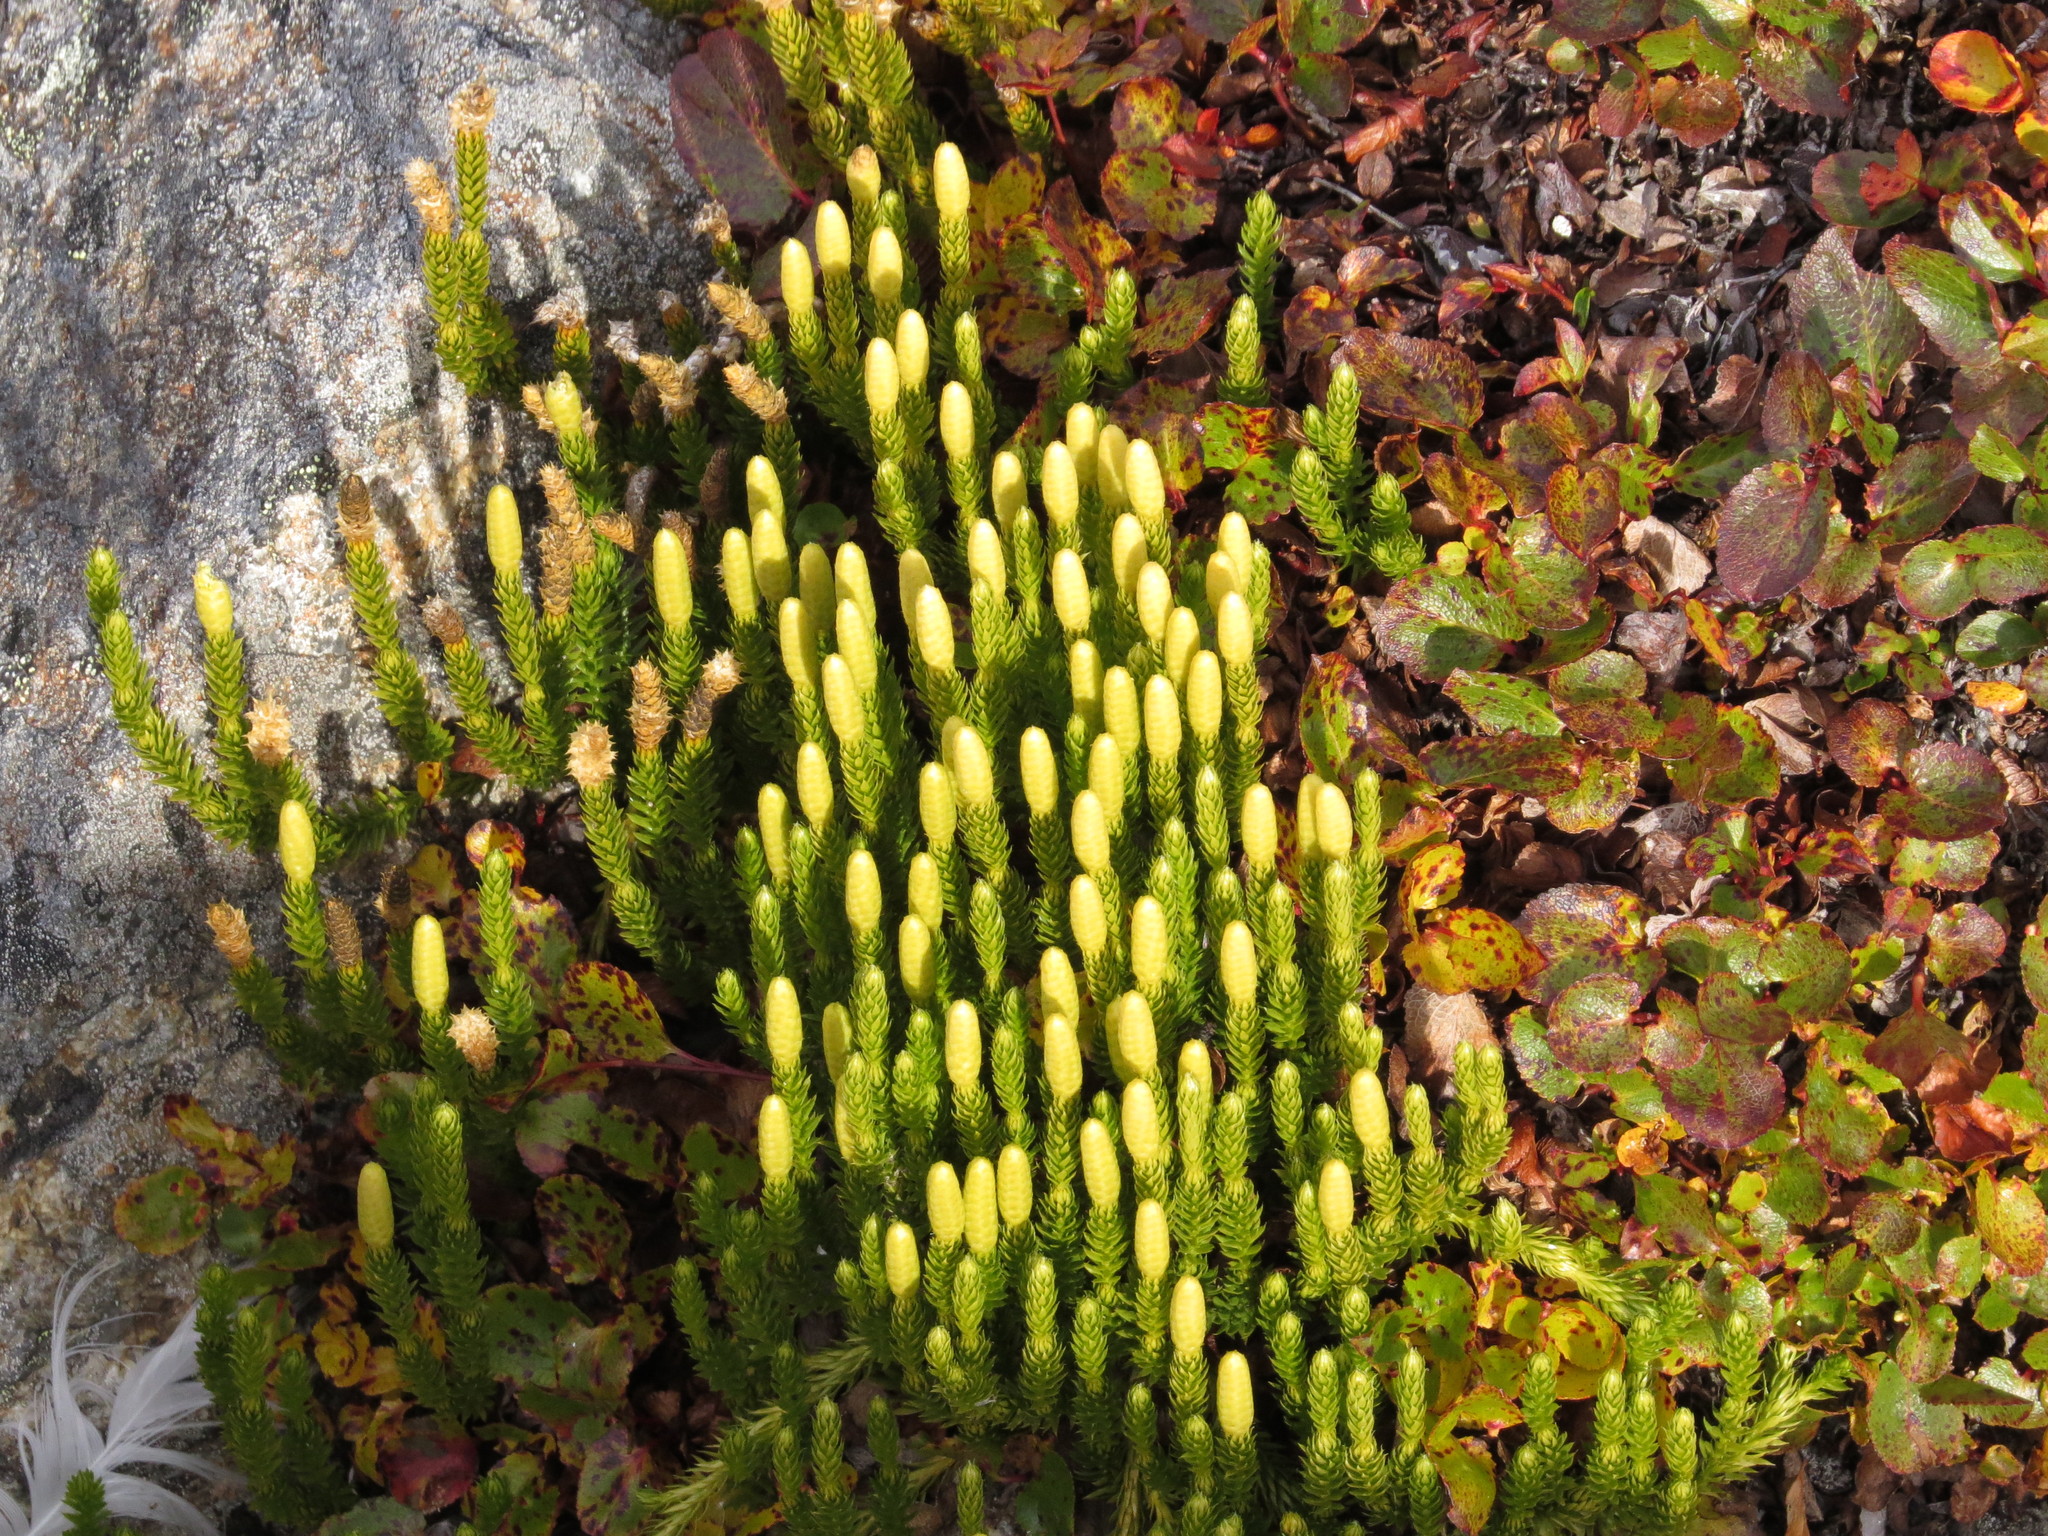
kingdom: Plantae
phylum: Tracheophyta
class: Lycopodiopsida
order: Lycopodiales
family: Lycopodiaceae
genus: Spinulum
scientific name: Spinulum annotinum
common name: Interrupted club-moss
